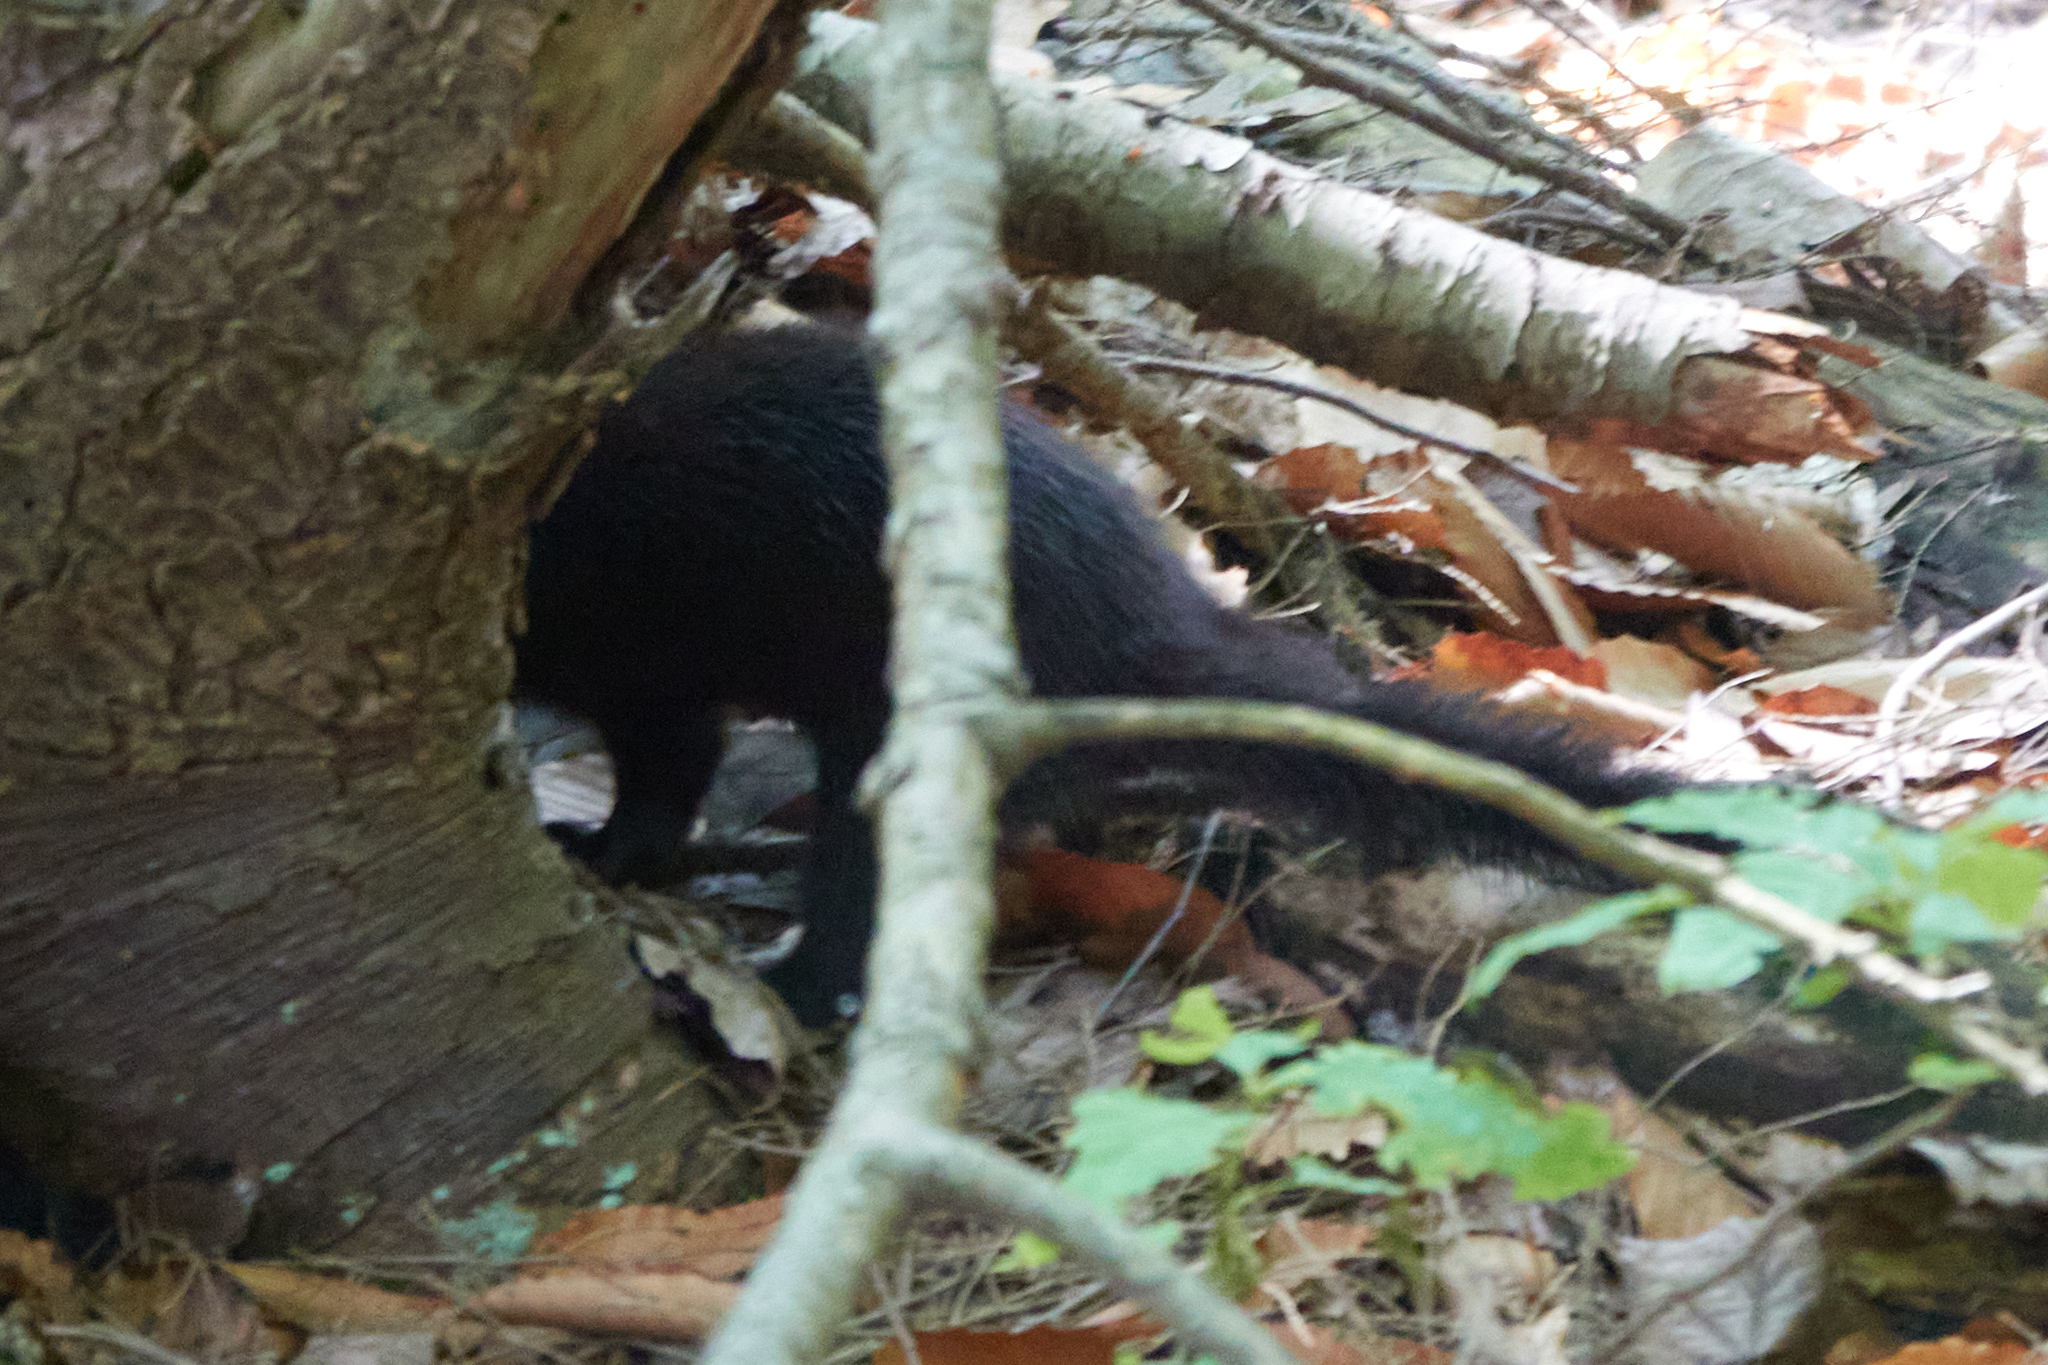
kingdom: Animalia
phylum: Chordata
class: Mammalia
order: Carnivora
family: Mustelidae
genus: Mustela
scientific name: Mustela
